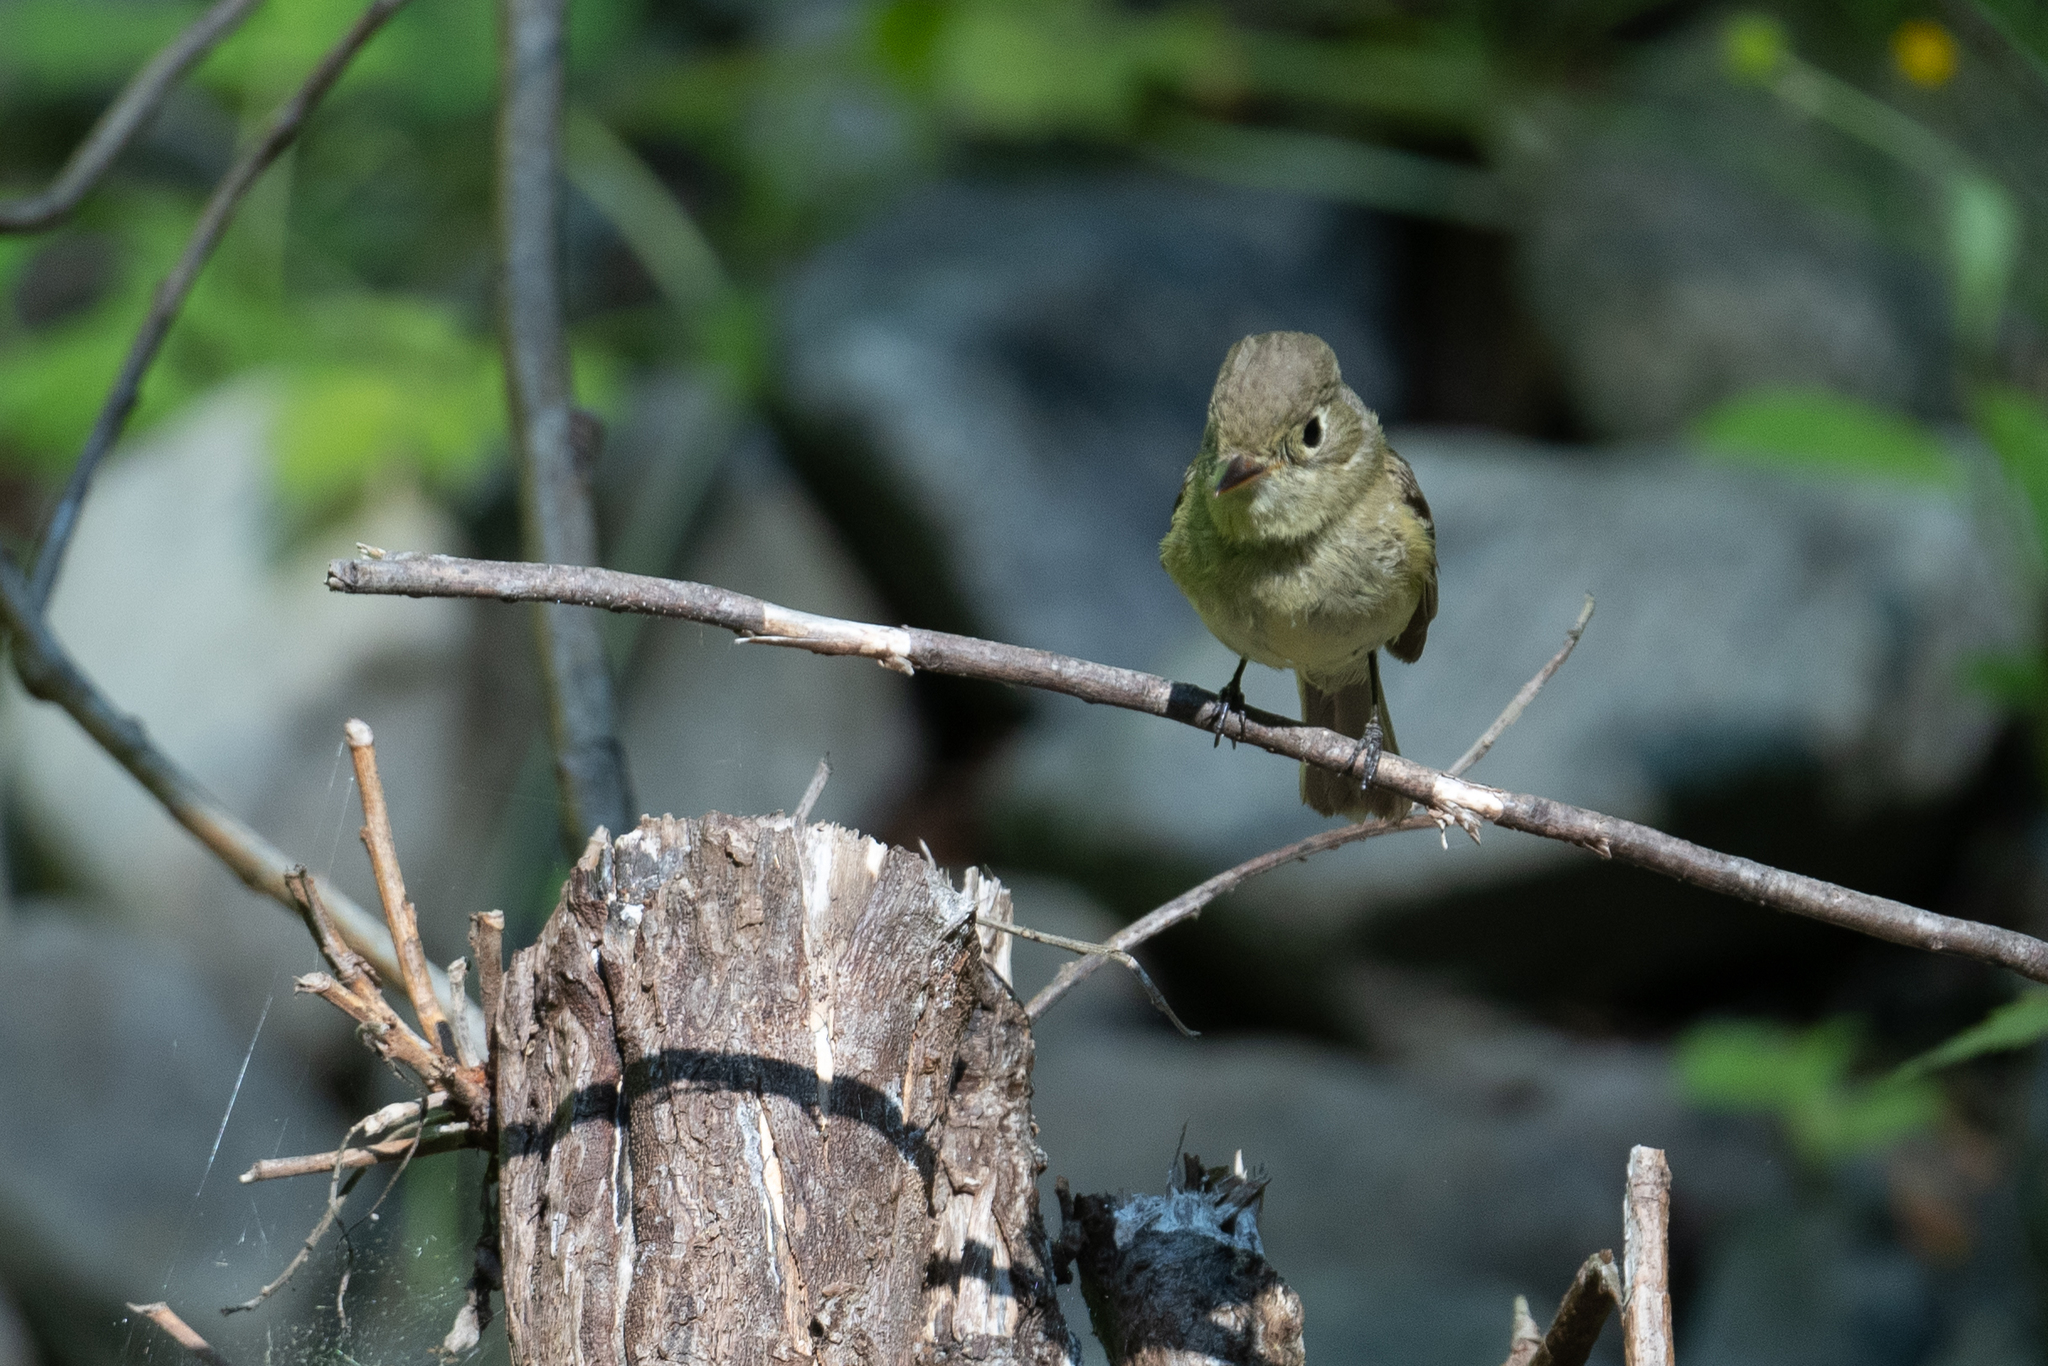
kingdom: Animalia
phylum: Chordata
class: Aves
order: Passeriformes
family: Tyrannidae
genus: Empidonax
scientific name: Empidonax difficilis
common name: Pacific-slope flycatcher
